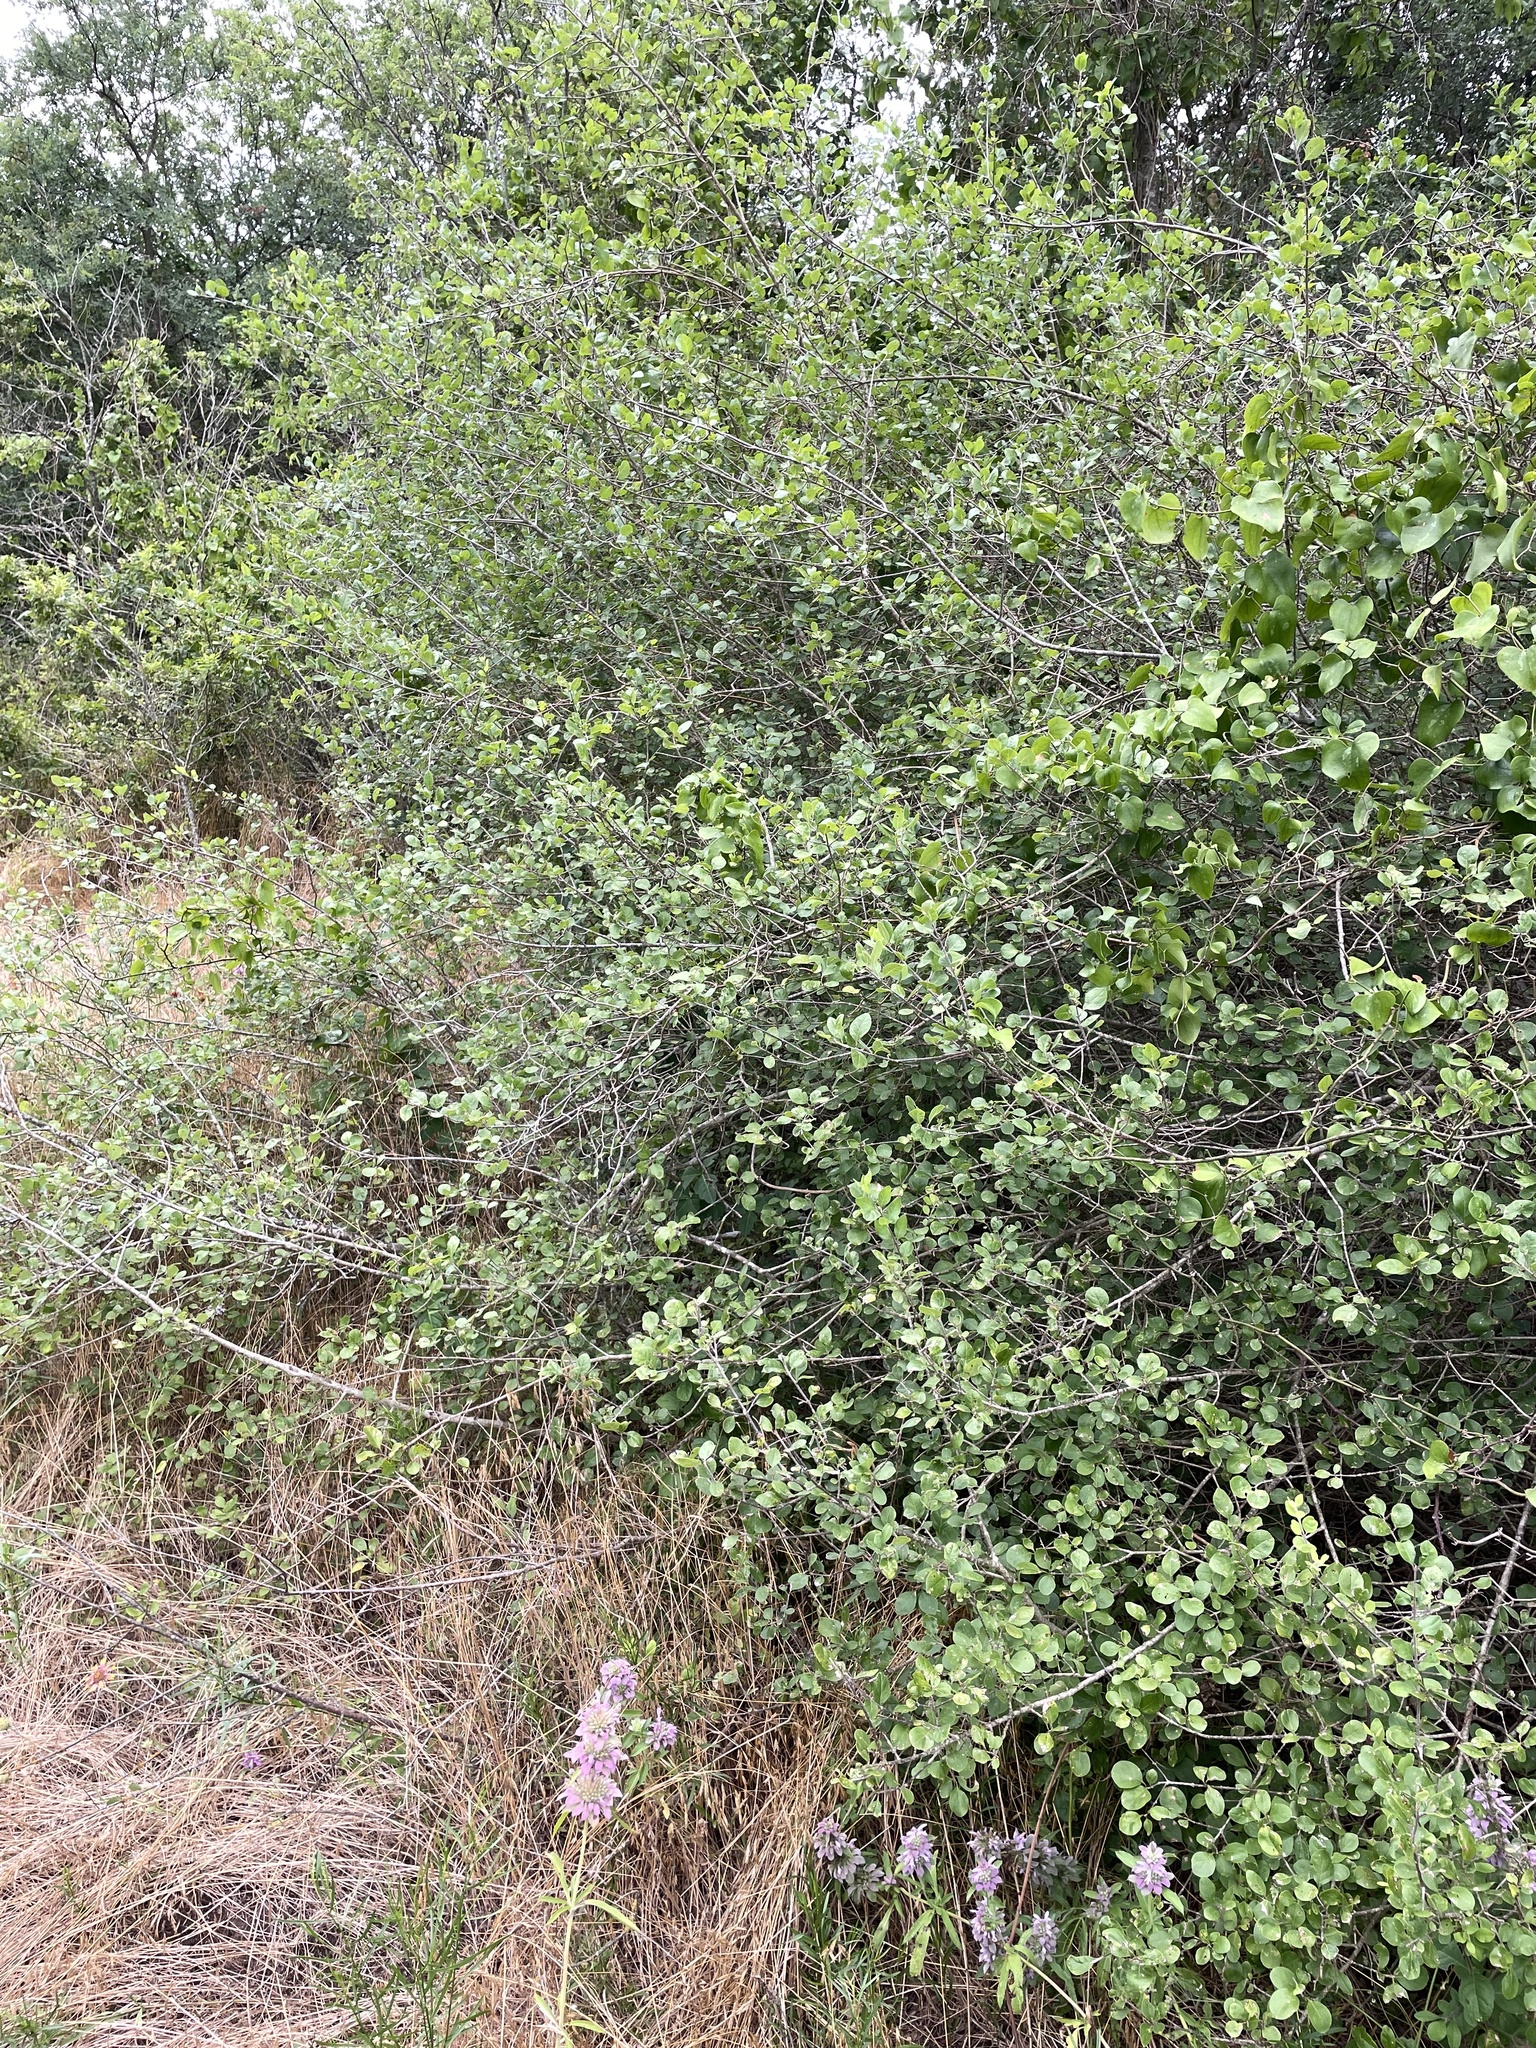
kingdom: Plantae
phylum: Tracheophyta
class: Magnoliopsida
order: Lamiales
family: Oleaceae
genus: Forestiera
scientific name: Forestiera pubescens
